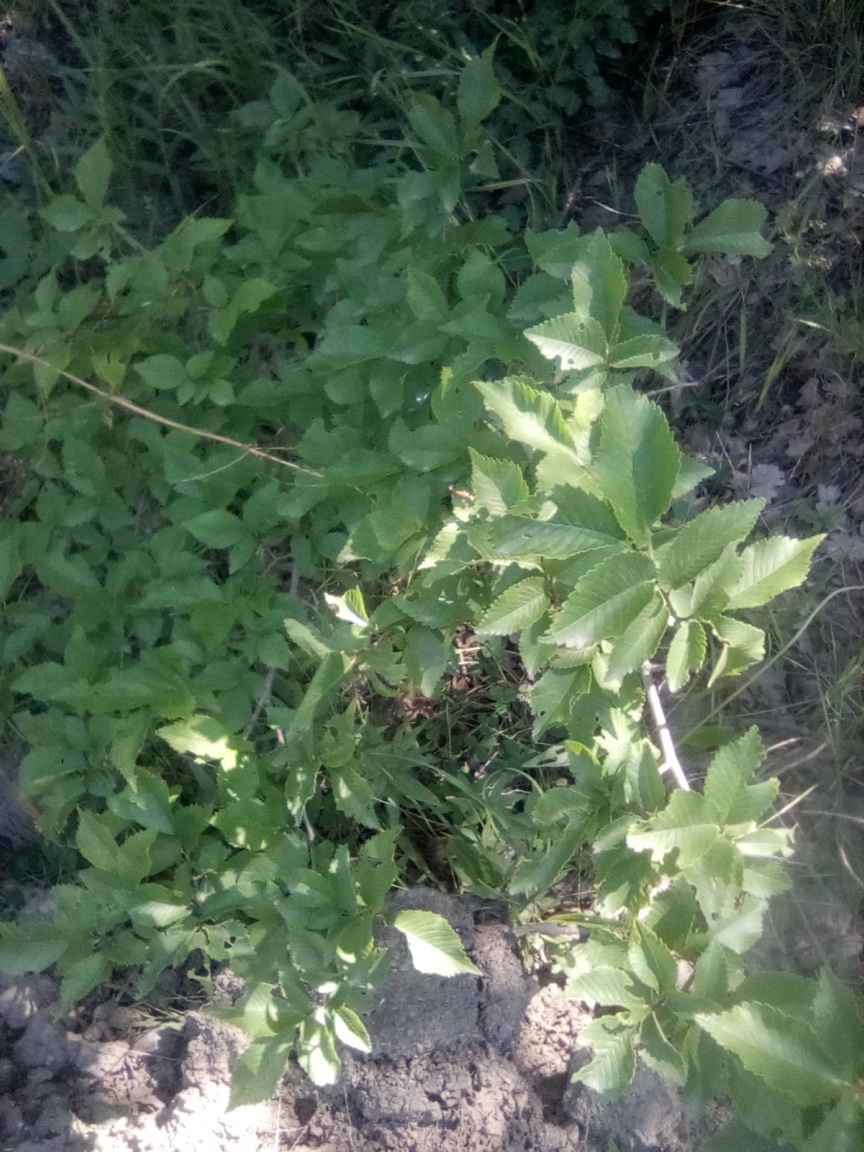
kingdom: Plantae
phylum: Tracheophyta
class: Magnoliopsida
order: Fagales
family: Betulaceae
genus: Carpinus
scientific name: Carpinus orientalis
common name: Eastern hornbeam
